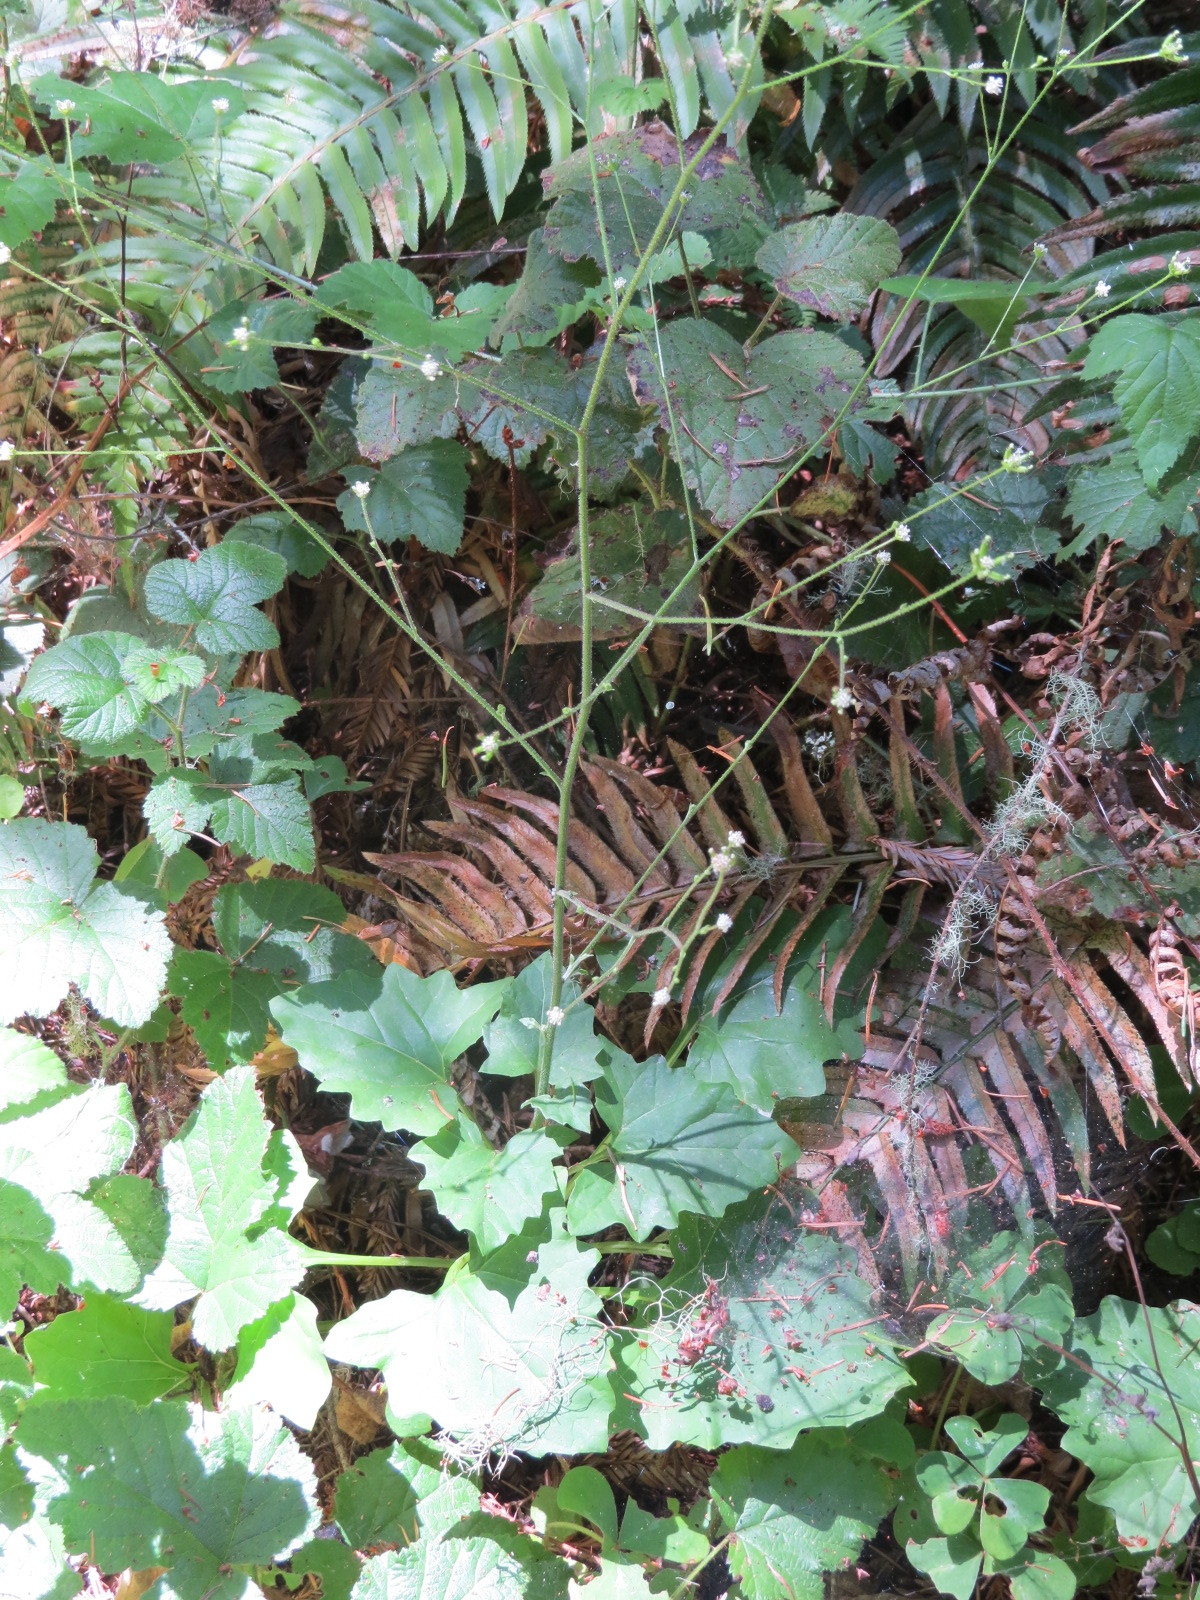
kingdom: Plantae
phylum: Tracheophyta
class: Magnoliopsida
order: Asterales
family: Asteraceae
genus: Adenocaulon
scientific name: Adenocaulon bicolor
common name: Trailplant
